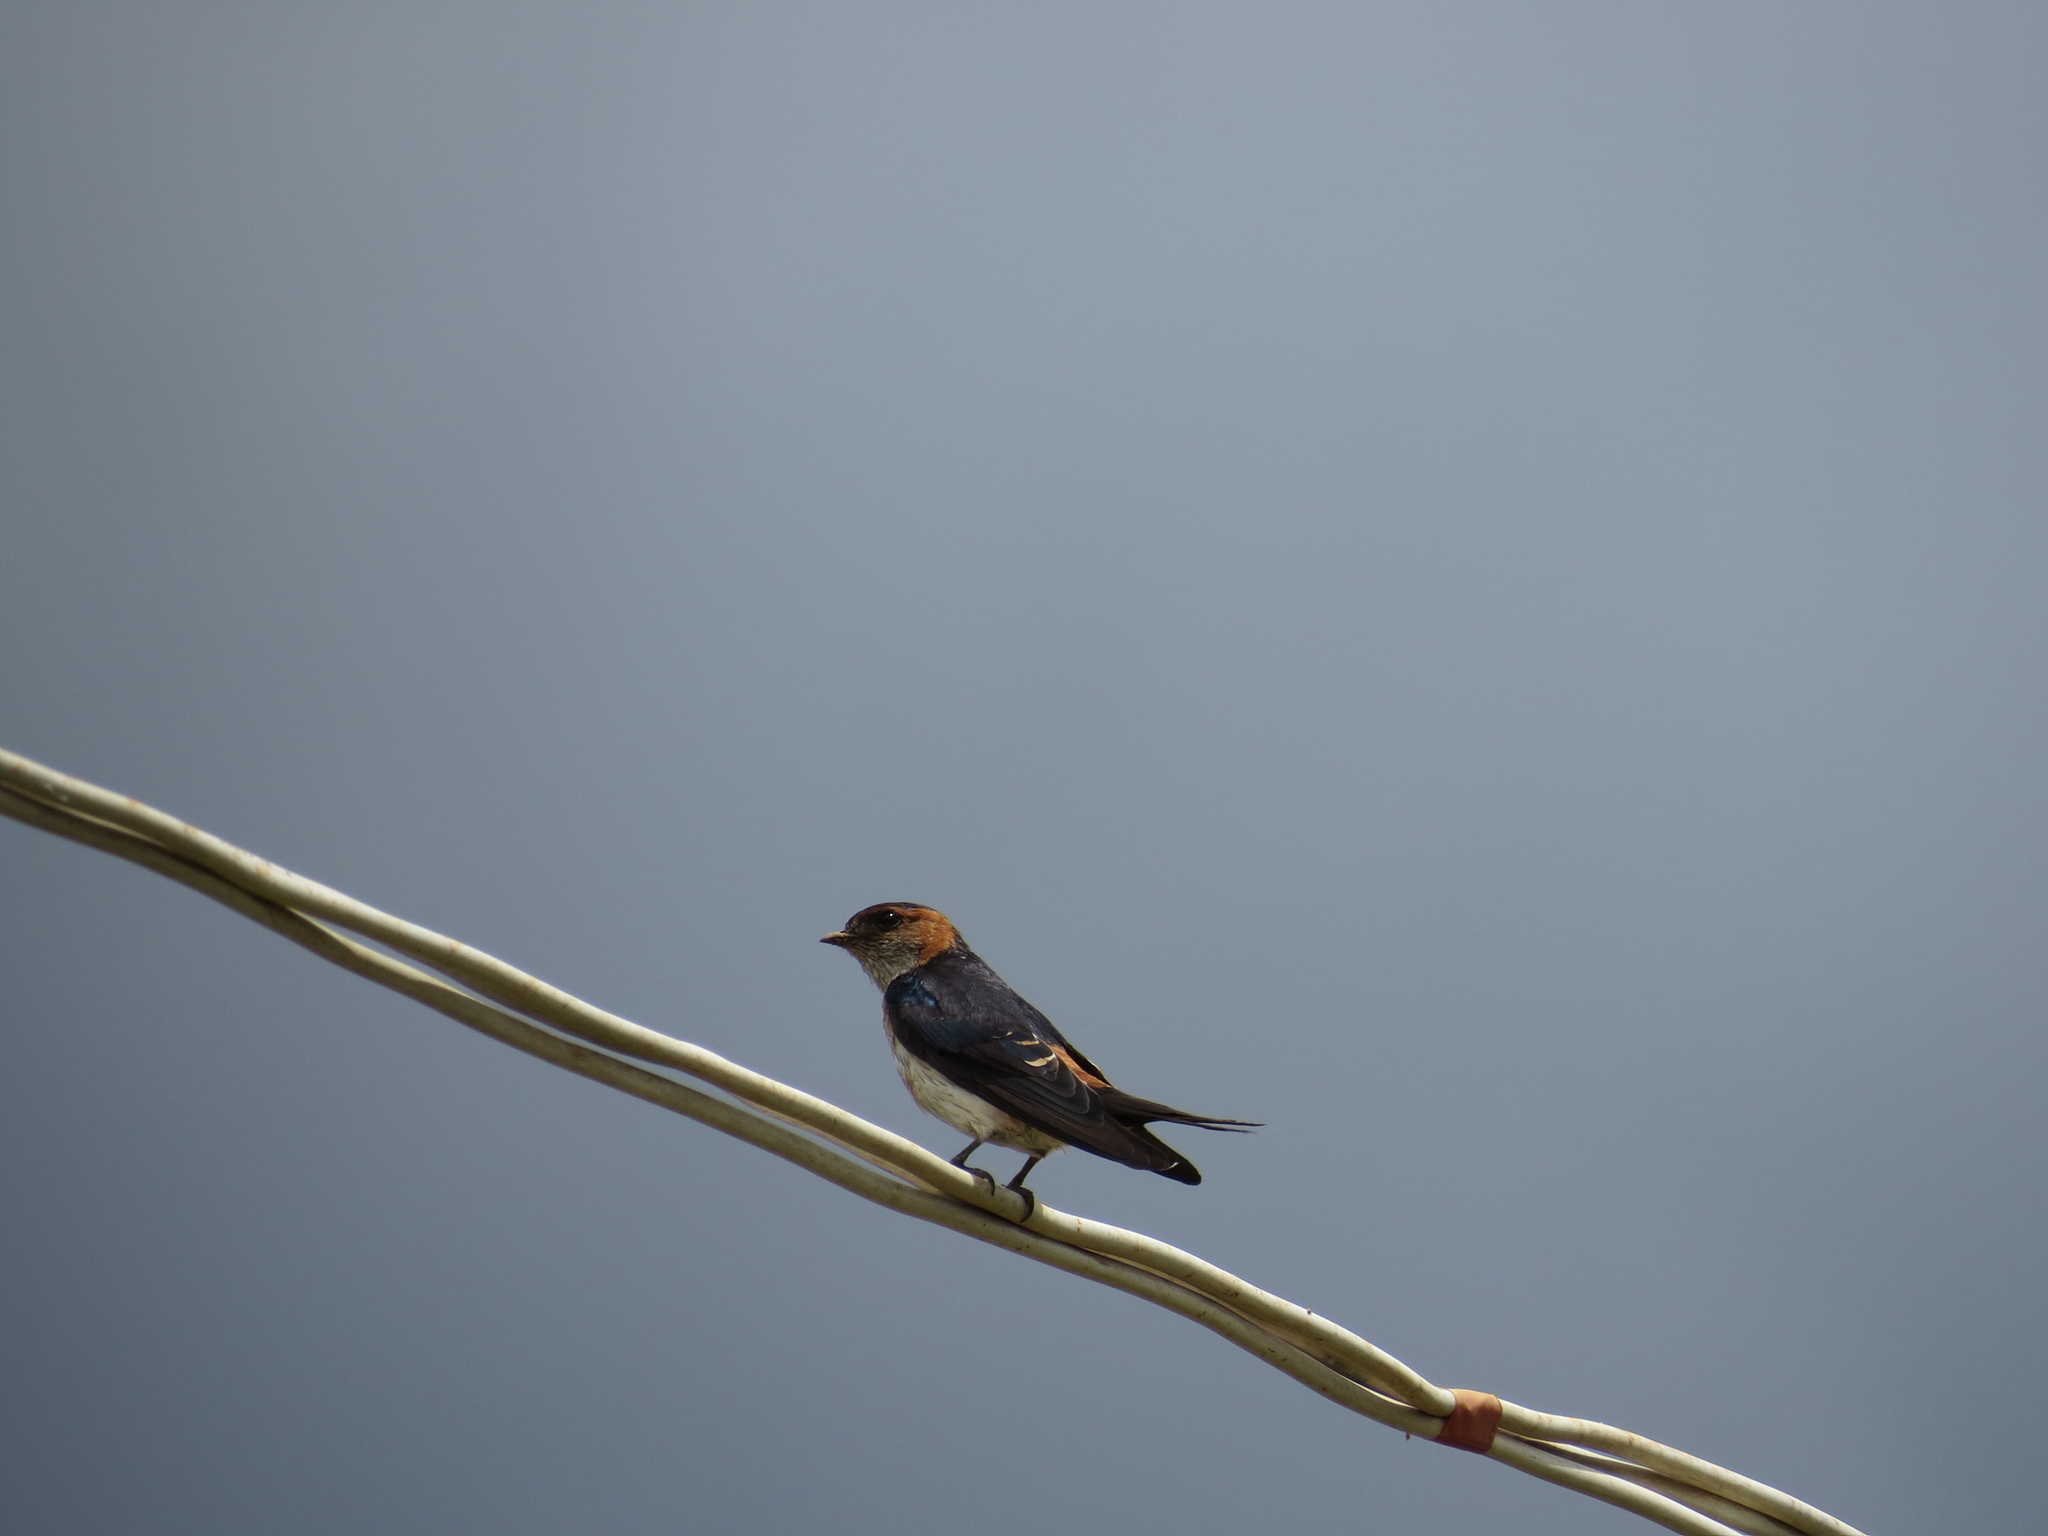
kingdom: Animalia
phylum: Chordata
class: Aves
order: Passeriformes
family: Hirundinidae
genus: Cecropis
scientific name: Cecropis daurica
